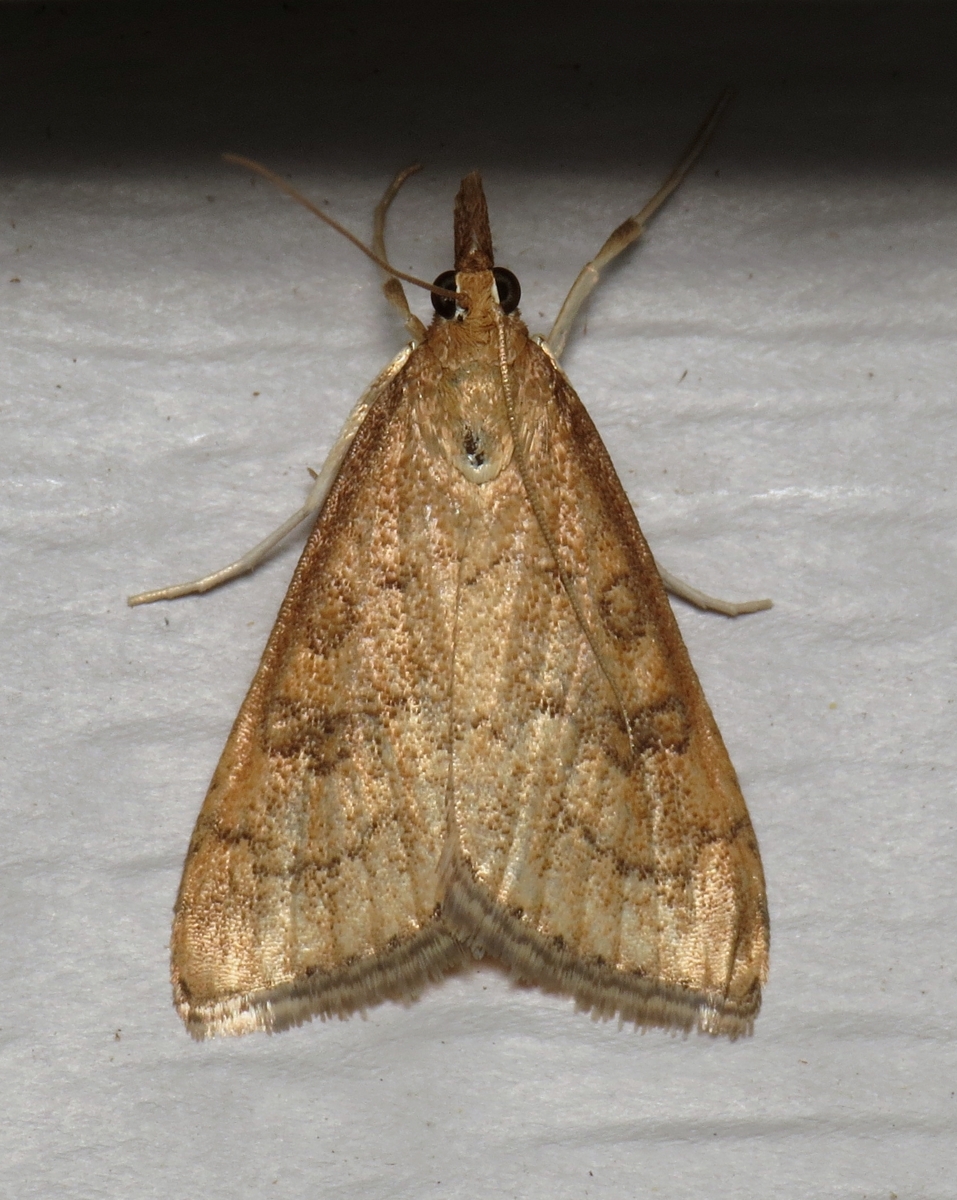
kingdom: Animalia
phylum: Arthropoda
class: Insecta
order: Lepidoptera
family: Crambidae
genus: Udea
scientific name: Udea rubigalis
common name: Celery leaftier moth
